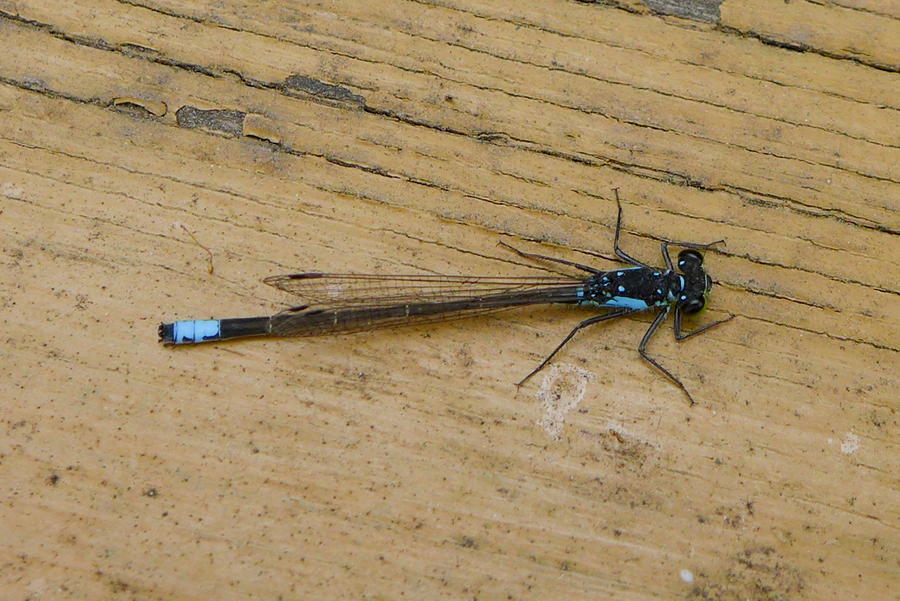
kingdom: Animalia
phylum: Arthropoda
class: Insecta
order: Odonata
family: Coenagrionidae
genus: Ischnura
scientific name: Ischnura cervula
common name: Pacific forktail
